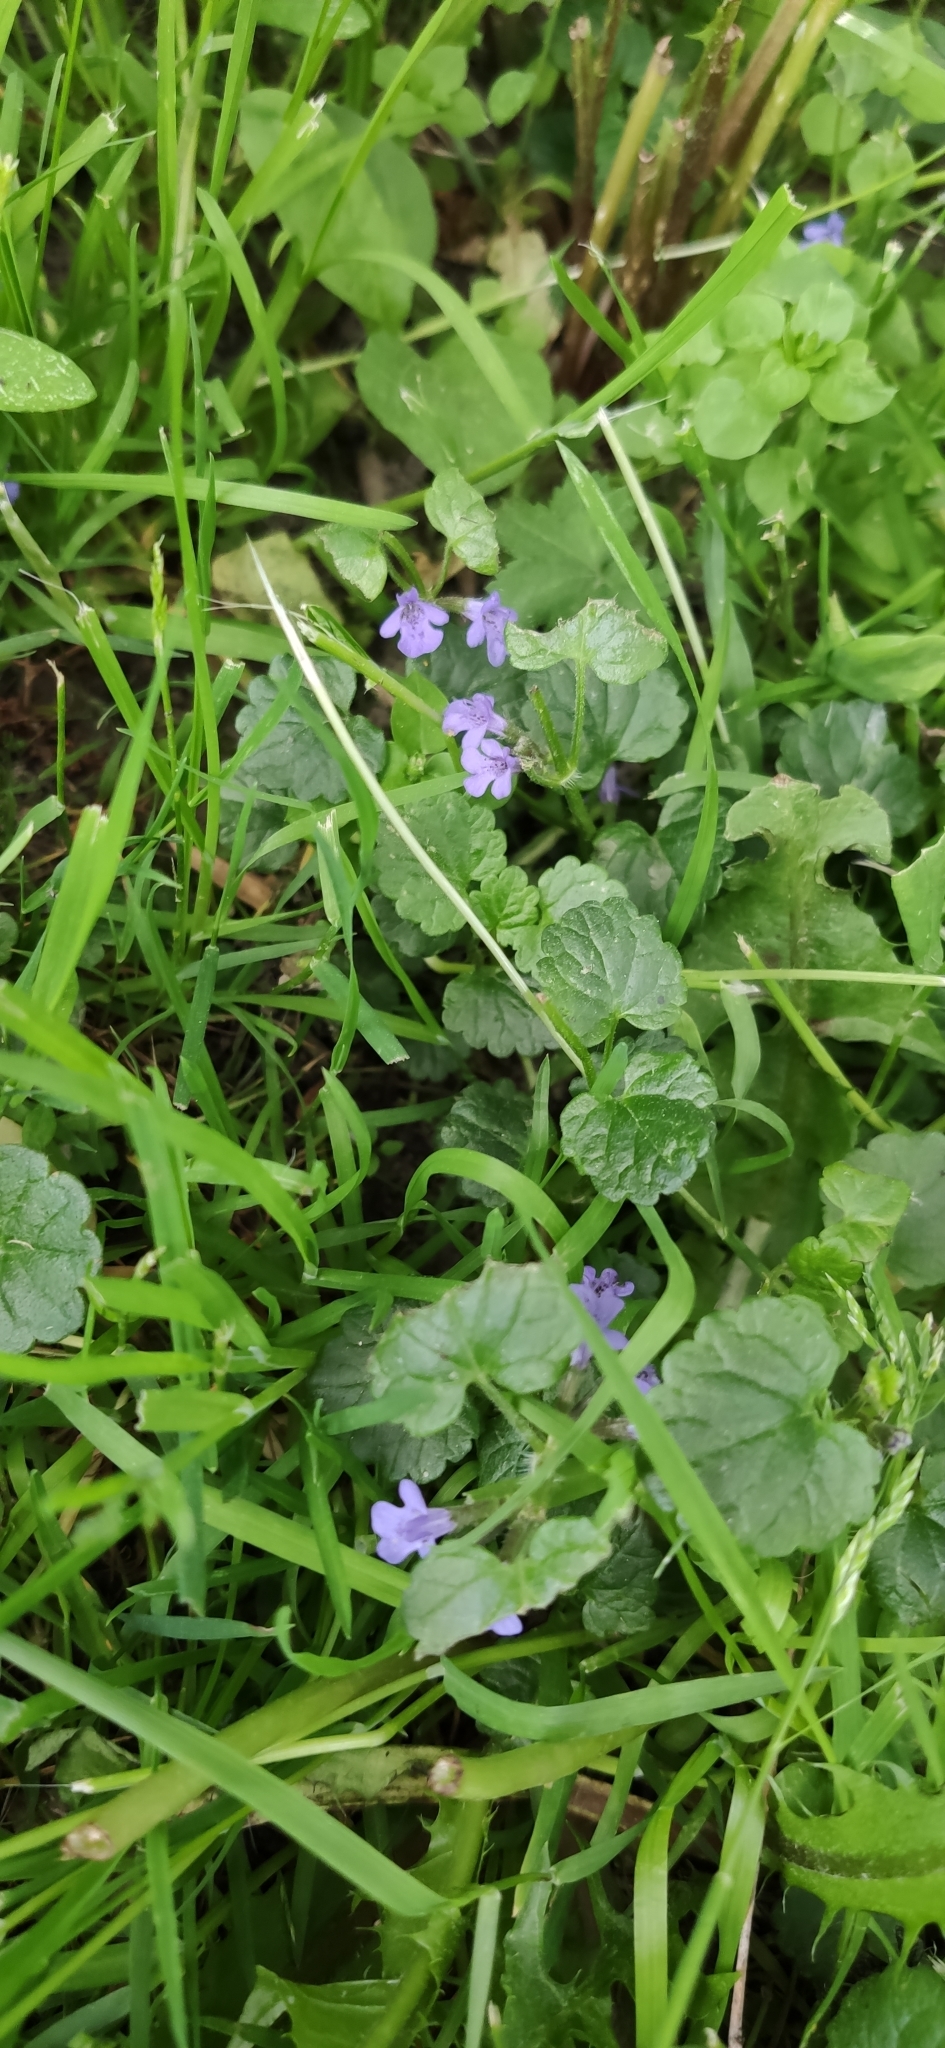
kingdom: Plantae
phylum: Tracheophyta
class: Magnoliopsida
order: Lamiales
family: Lamiaceae
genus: Glechoma
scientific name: Glechoma hederacea
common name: Ground ivy
